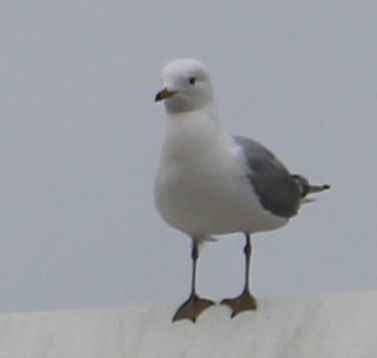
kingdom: Animalia
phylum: Chordata
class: Aves
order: Charadriiformes
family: Laridae
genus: Larus
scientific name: Larus canus
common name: Mew gull
